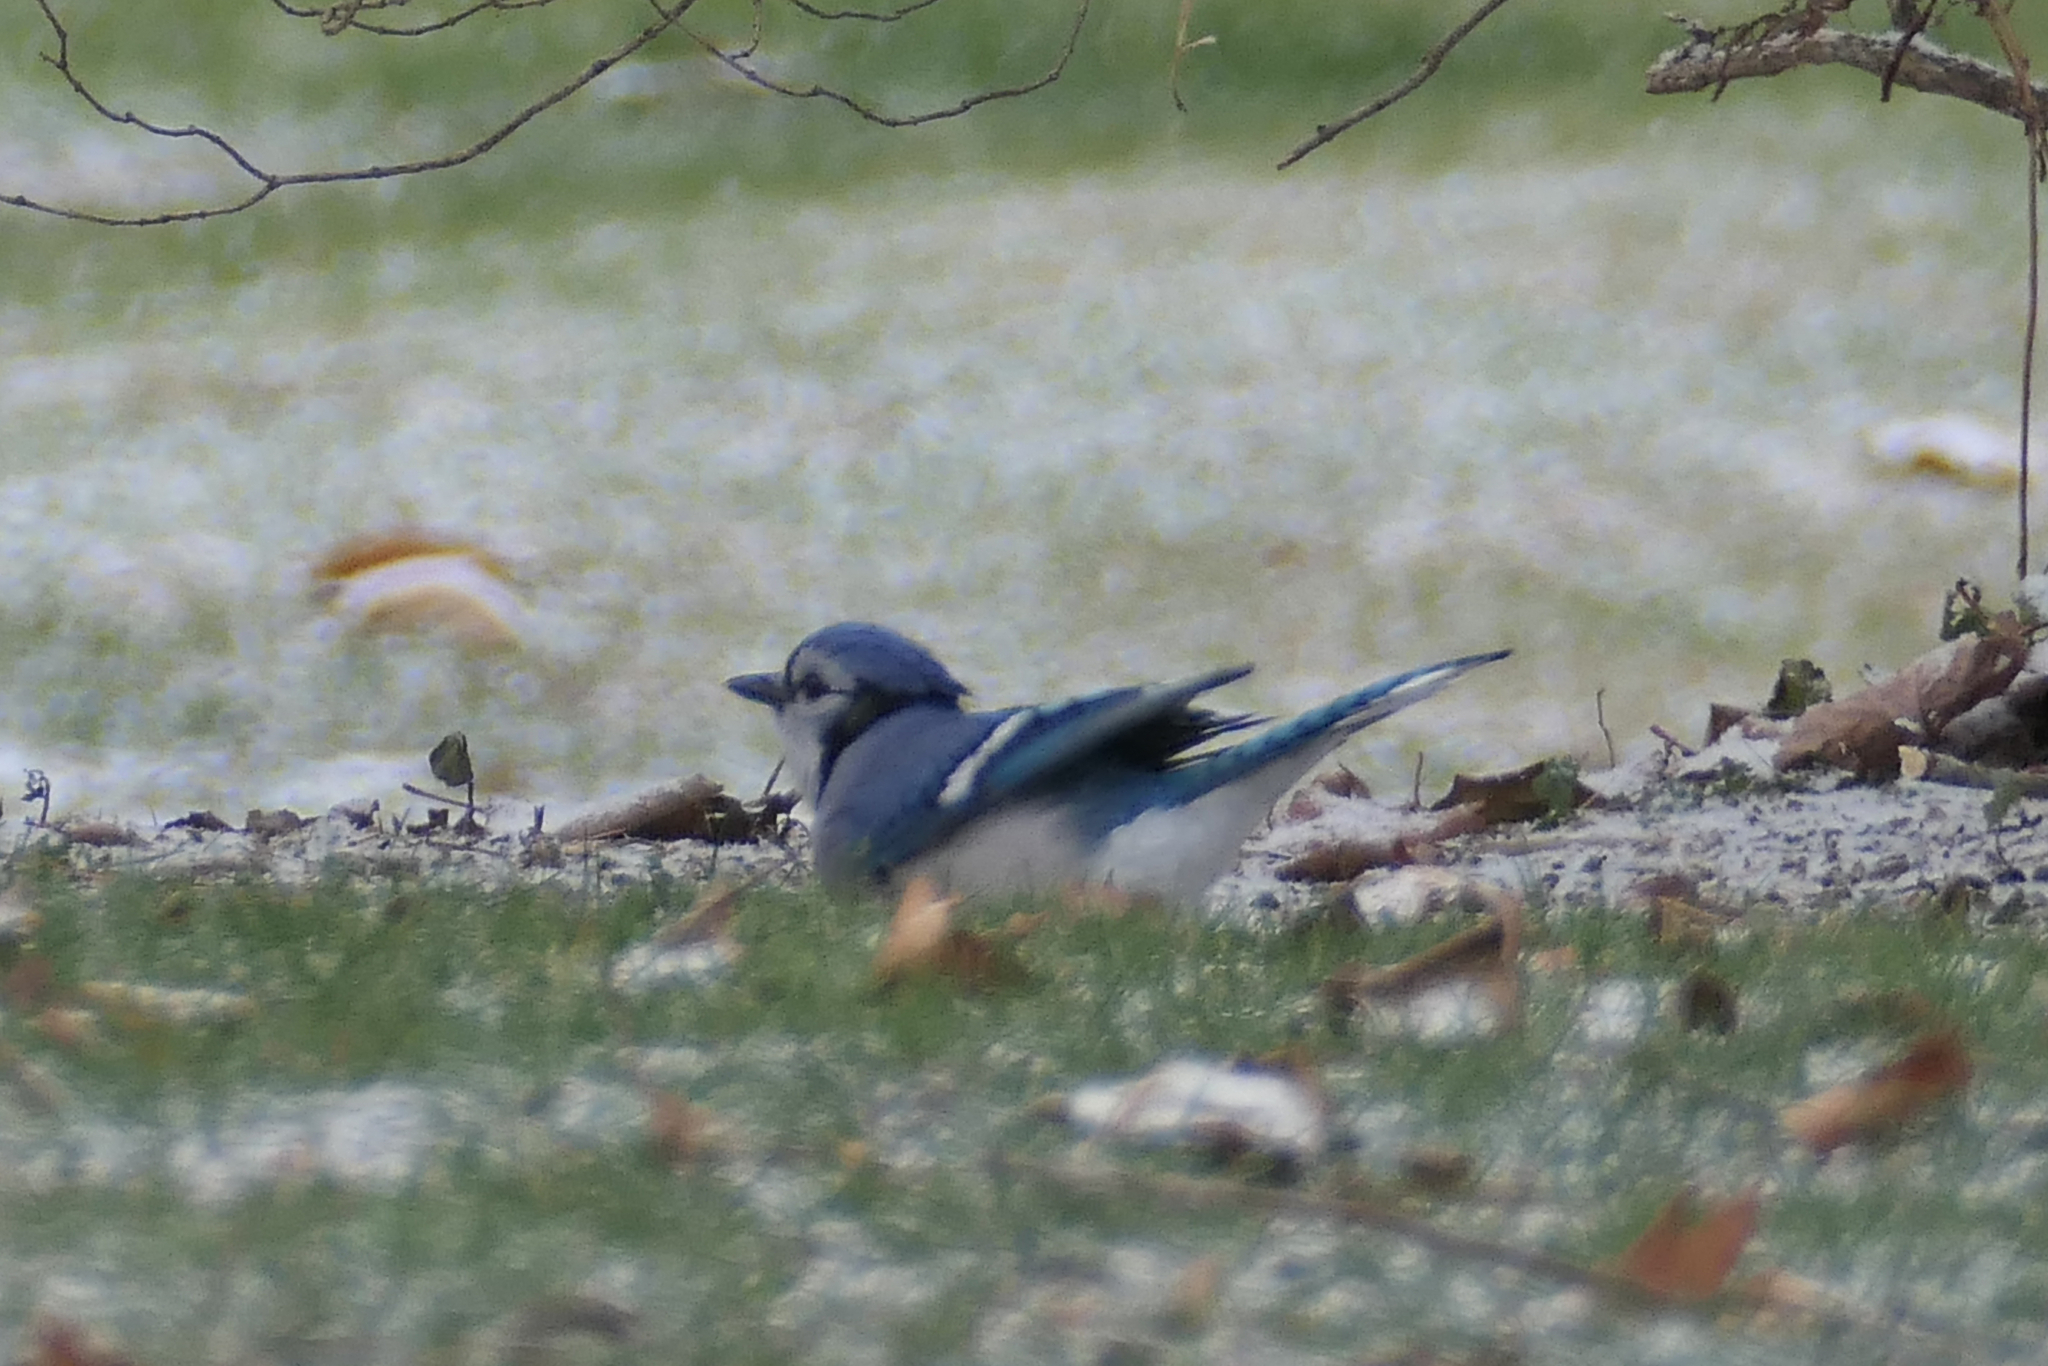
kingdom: Animalia
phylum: Chordata
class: Aves
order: Passeriformes
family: Corvidae
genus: Cyanocitta
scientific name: Cyanocitta cristata
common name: Blue jay
